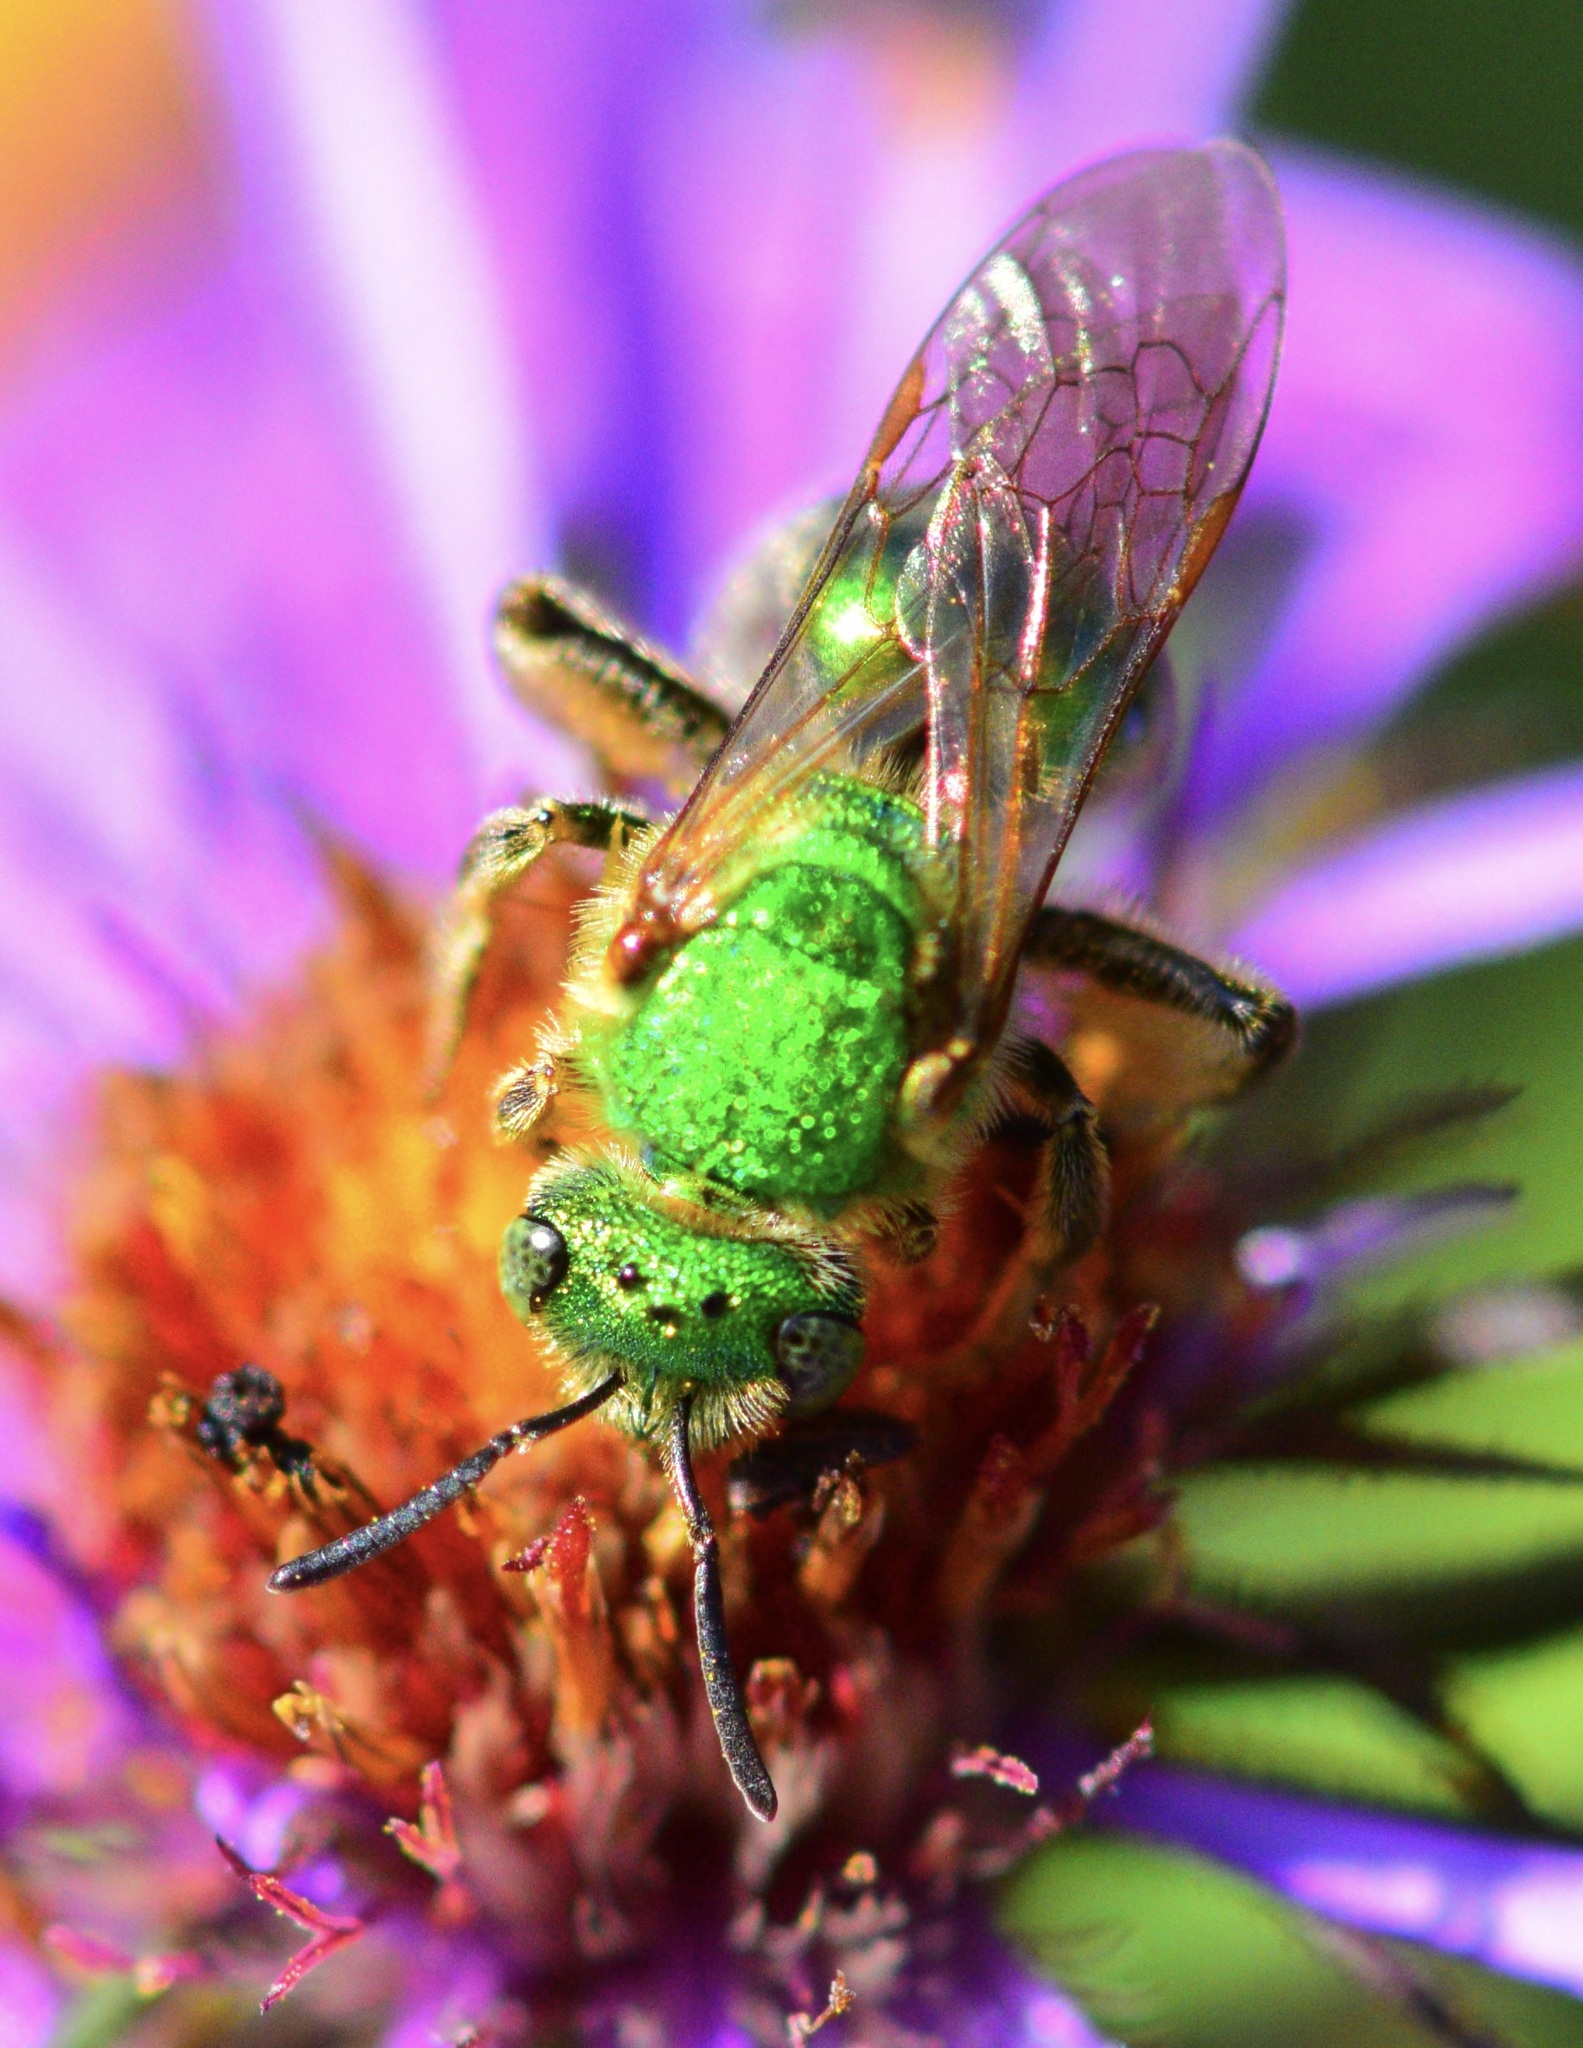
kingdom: Animalia
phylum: Arthropoda
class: Insecta
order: Hymenoptera
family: Halictidae
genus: Agapostemon
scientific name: Agapostemon sericeus
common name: Silky striped sweat bee
